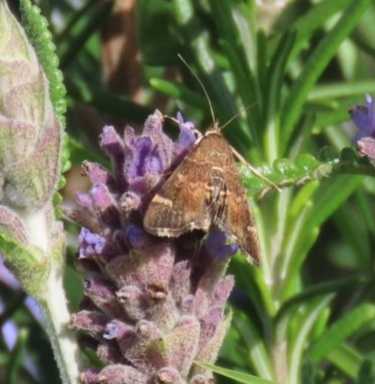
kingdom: Animalia
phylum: Arthropoda
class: Insecta
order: Lepidoptera
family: Crambidae
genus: Hymenia
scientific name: Hymenia perspectalis
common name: Spotted beet webworm
